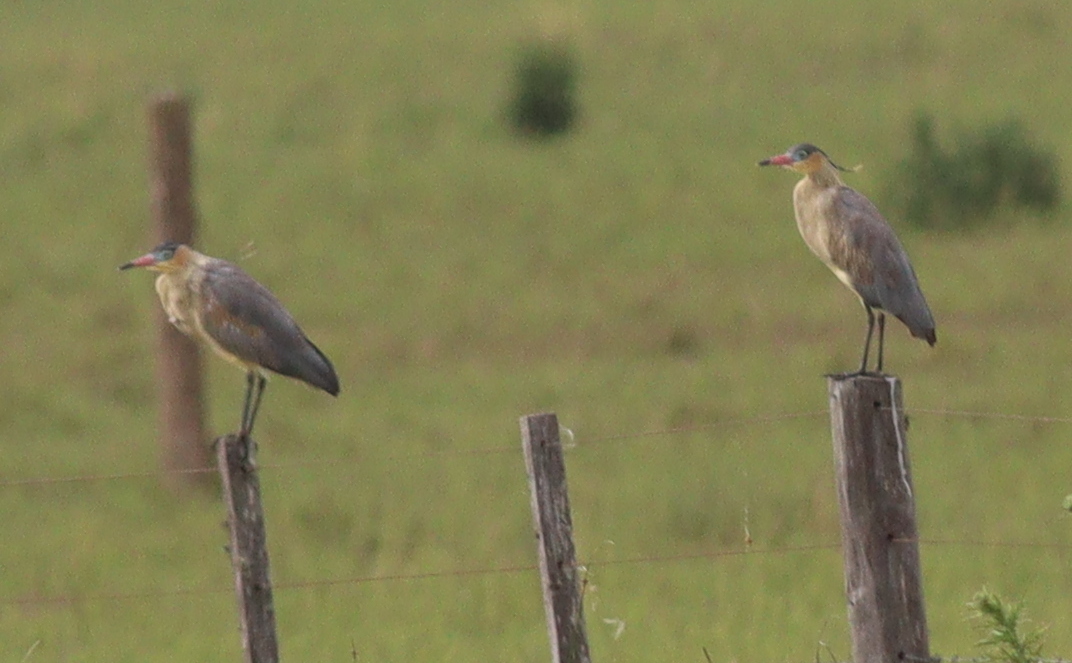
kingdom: Animalia
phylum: Chordata
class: Aves
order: Pelecaniformes
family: Ardeidae
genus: Syrigma
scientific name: Syrigma sibilatrix
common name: Whistling heron
